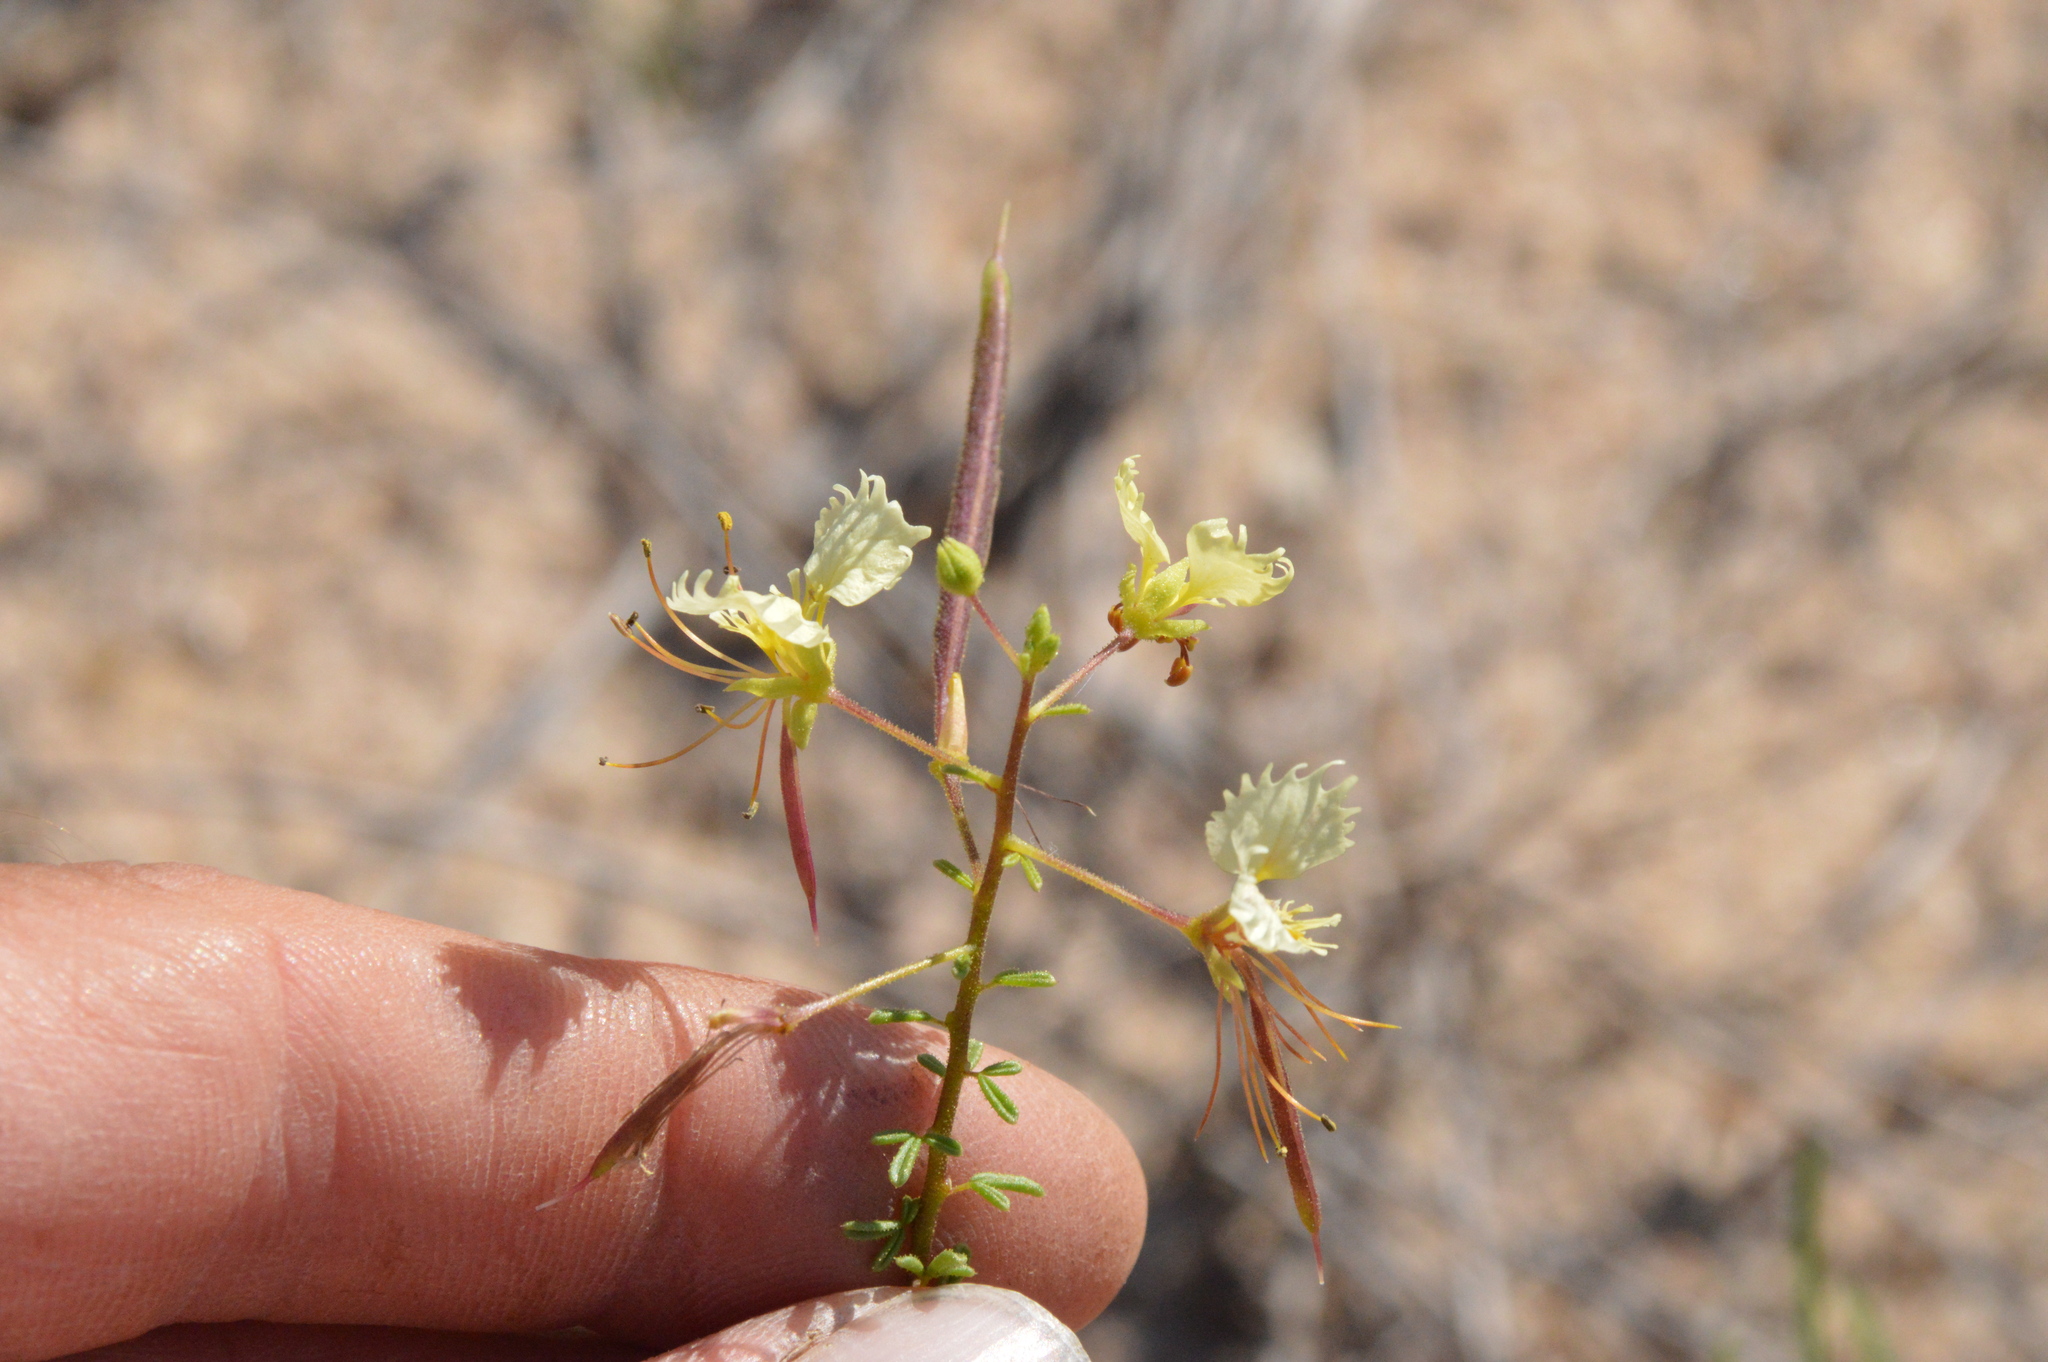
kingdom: Plantae
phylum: Tracheophyta
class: Magnoliopsida
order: Brassicales
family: Cleomaceae
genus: Polanisia
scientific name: Polanisia erosa
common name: Large clammyweed
